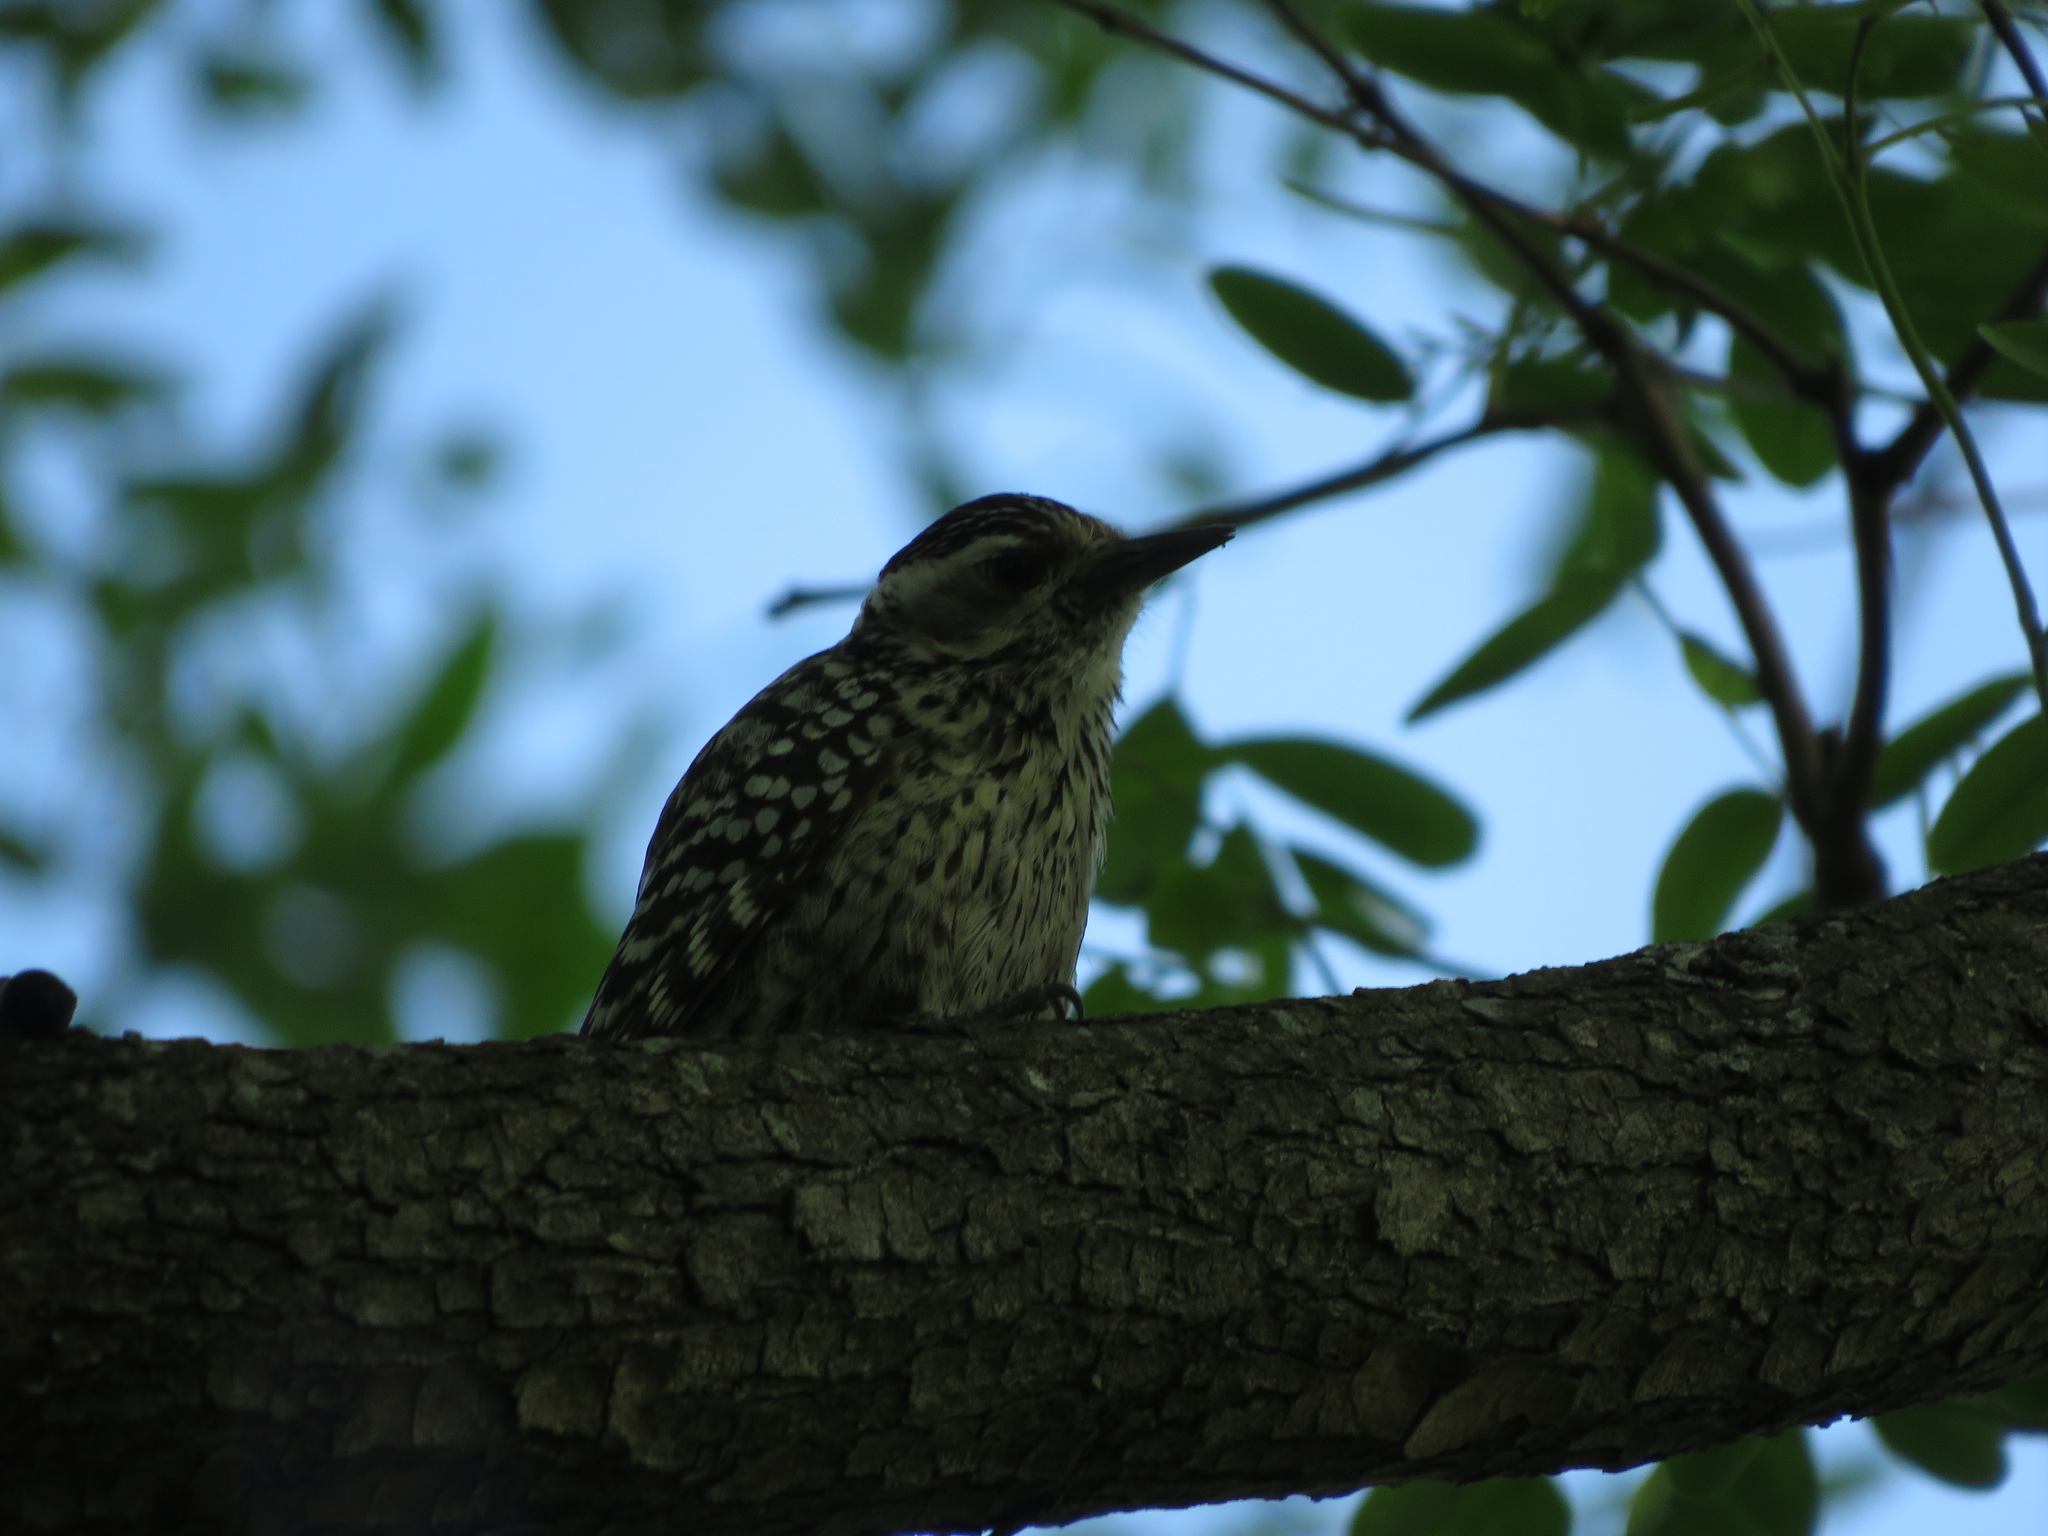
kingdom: Animalia
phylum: Chordata
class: Aves
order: Piciformes
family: Picidae
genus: Veniliornis
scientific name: Veniliornis mixtus
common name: Checkered woodpecker
